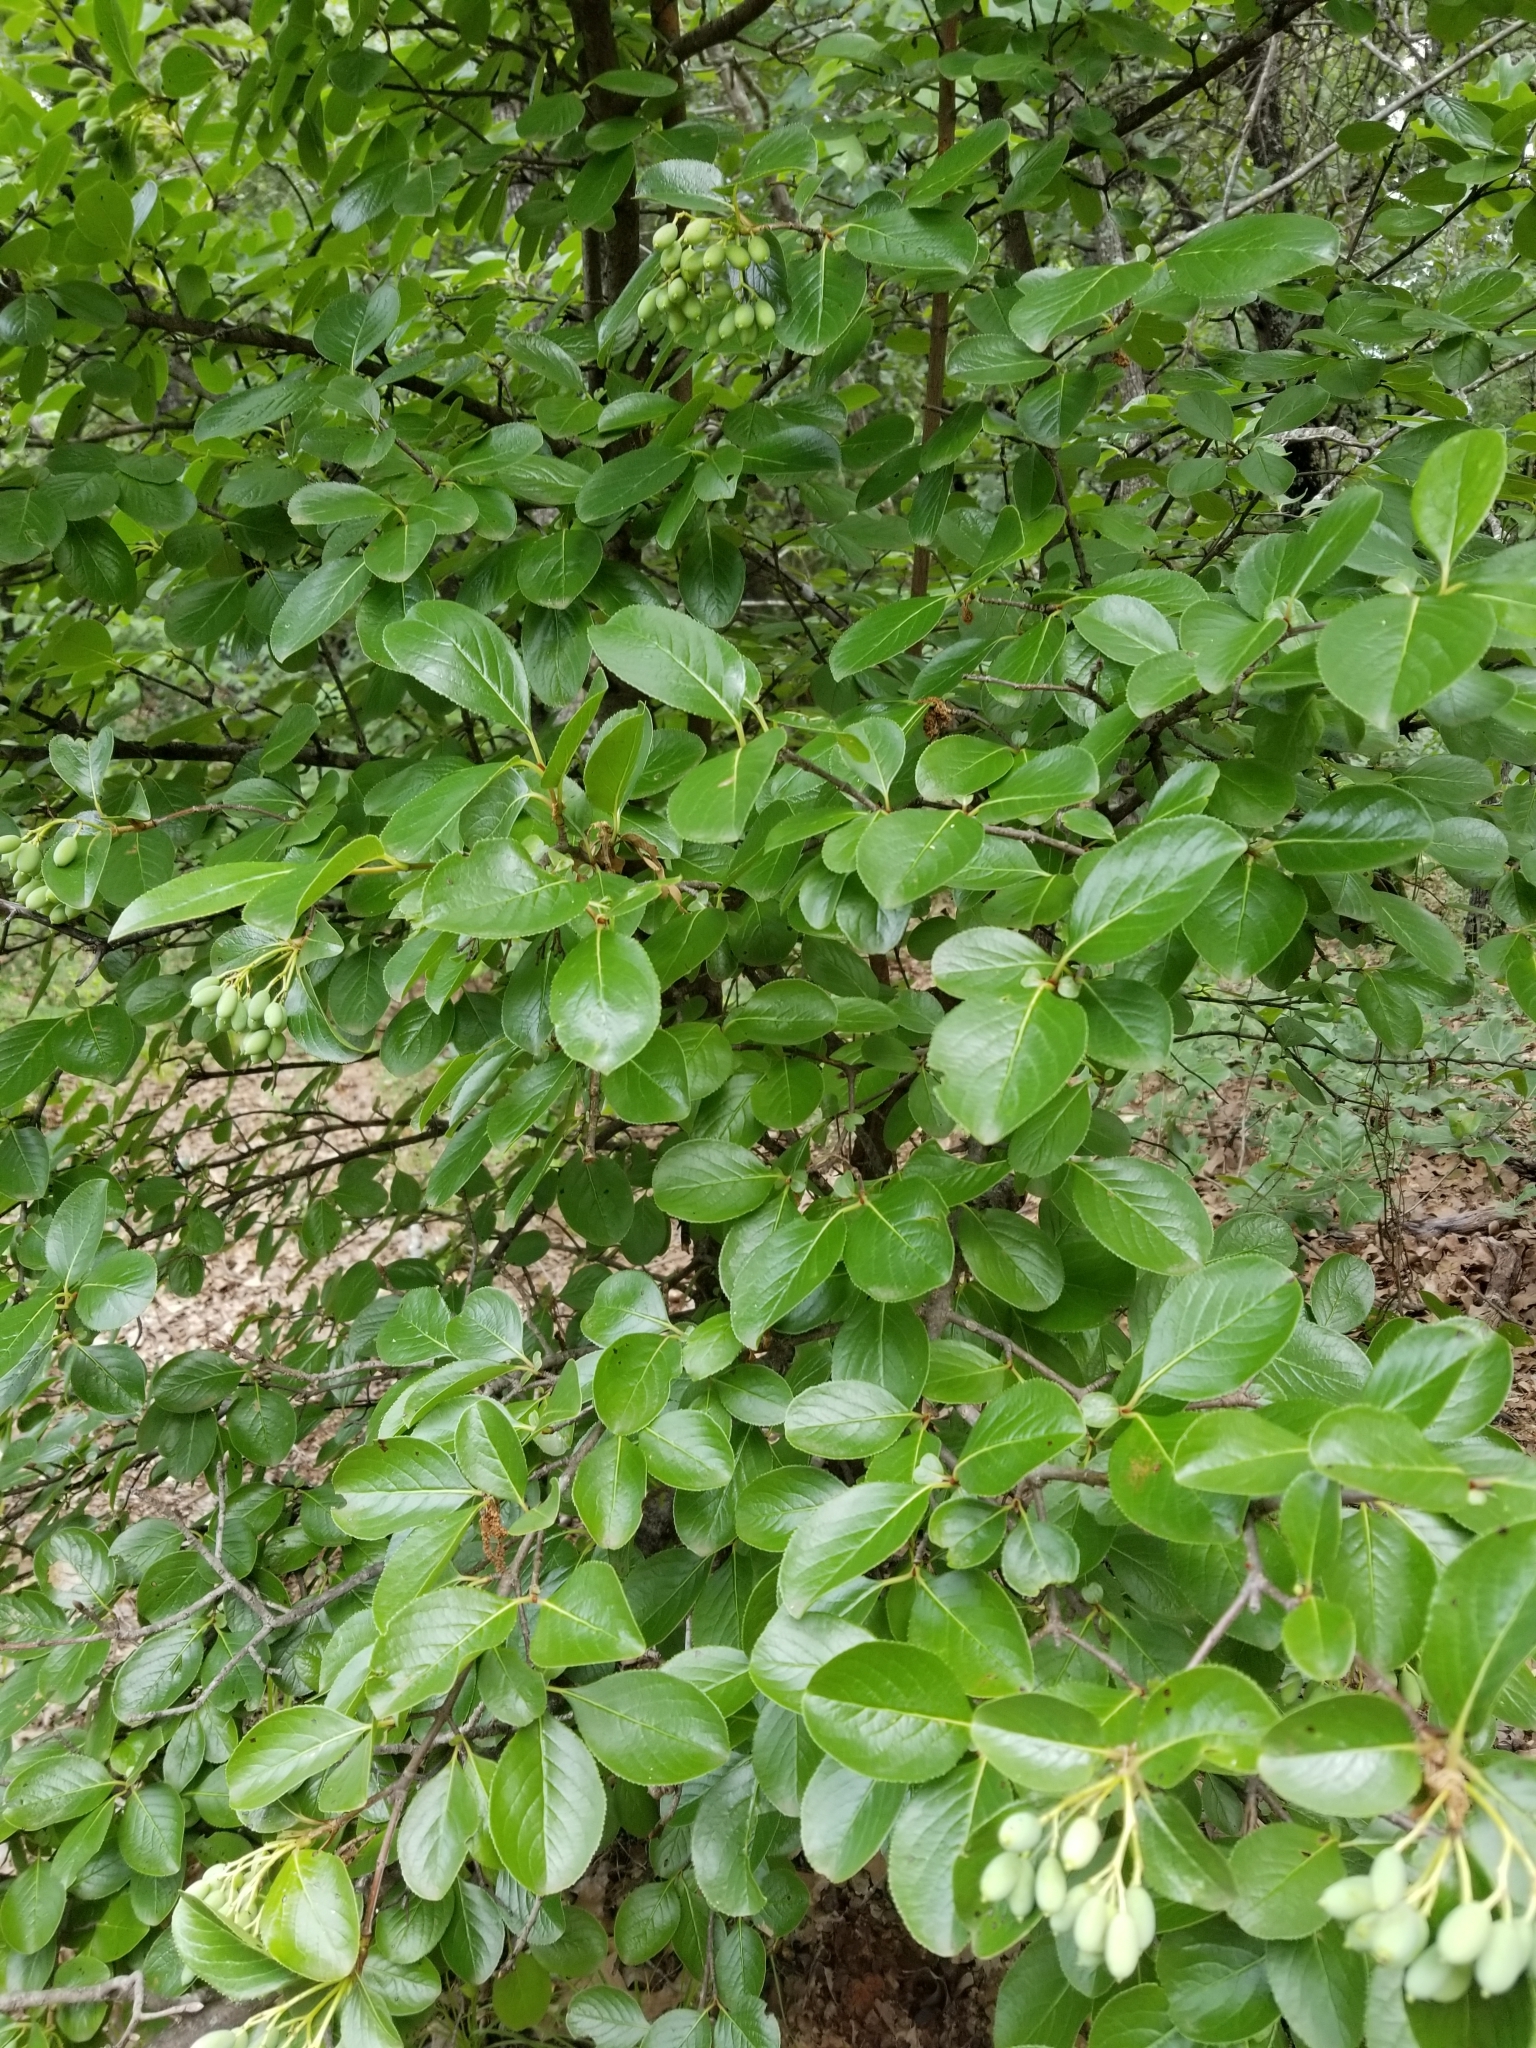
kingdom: Plantae
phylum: Tracheophyta
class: Magnoliopsida
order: Dipsacales
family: Viburnaceae
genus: Viburnum
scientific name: Viburnum rufidulum
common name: Blue haw
